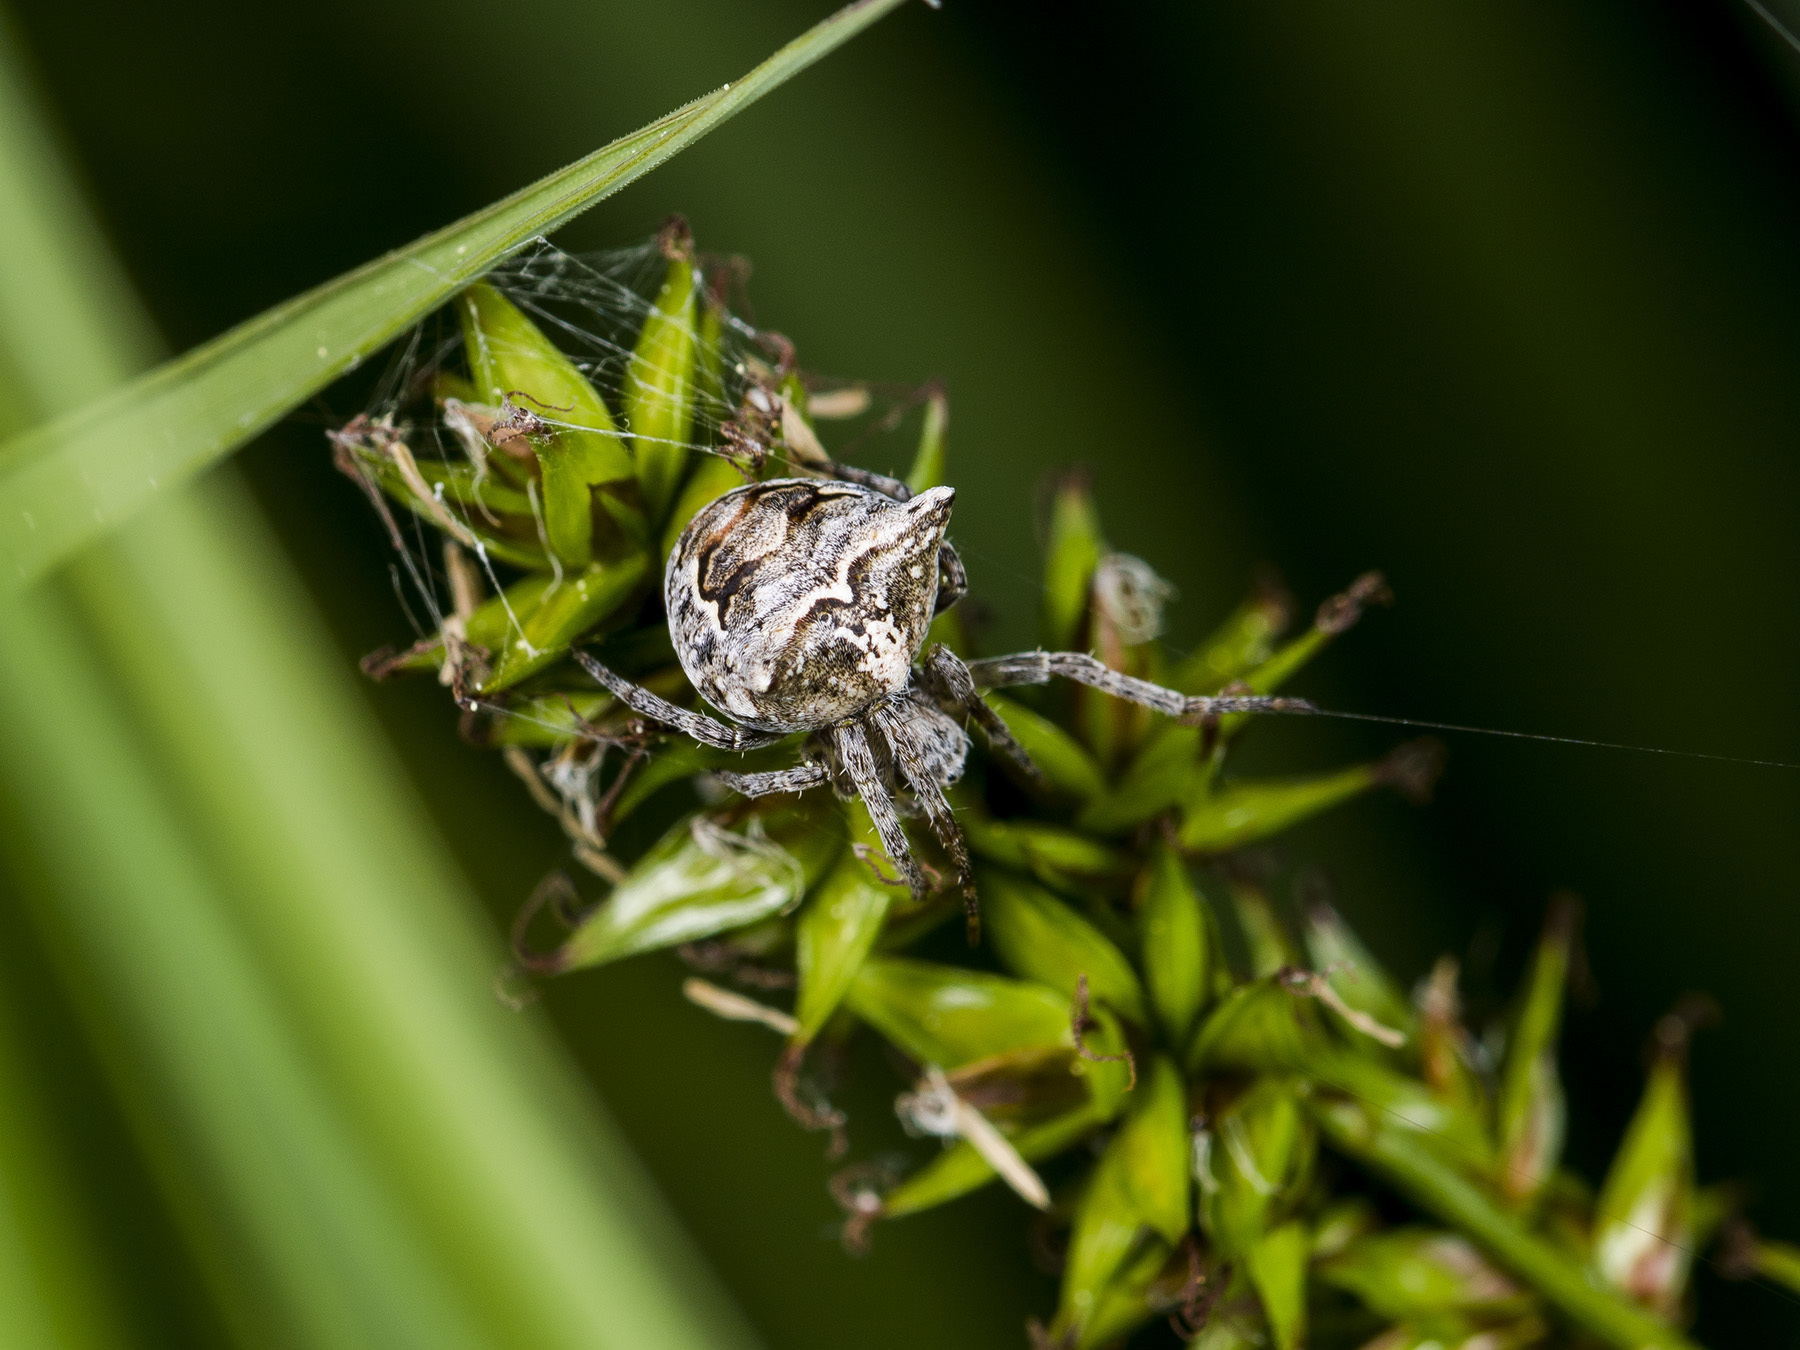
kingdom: Animalia
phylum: Arthropoda
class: Arachnida
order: Araneae
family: Araneidae
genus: Gibbaranea
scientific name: Gibbaranea ullrichi
